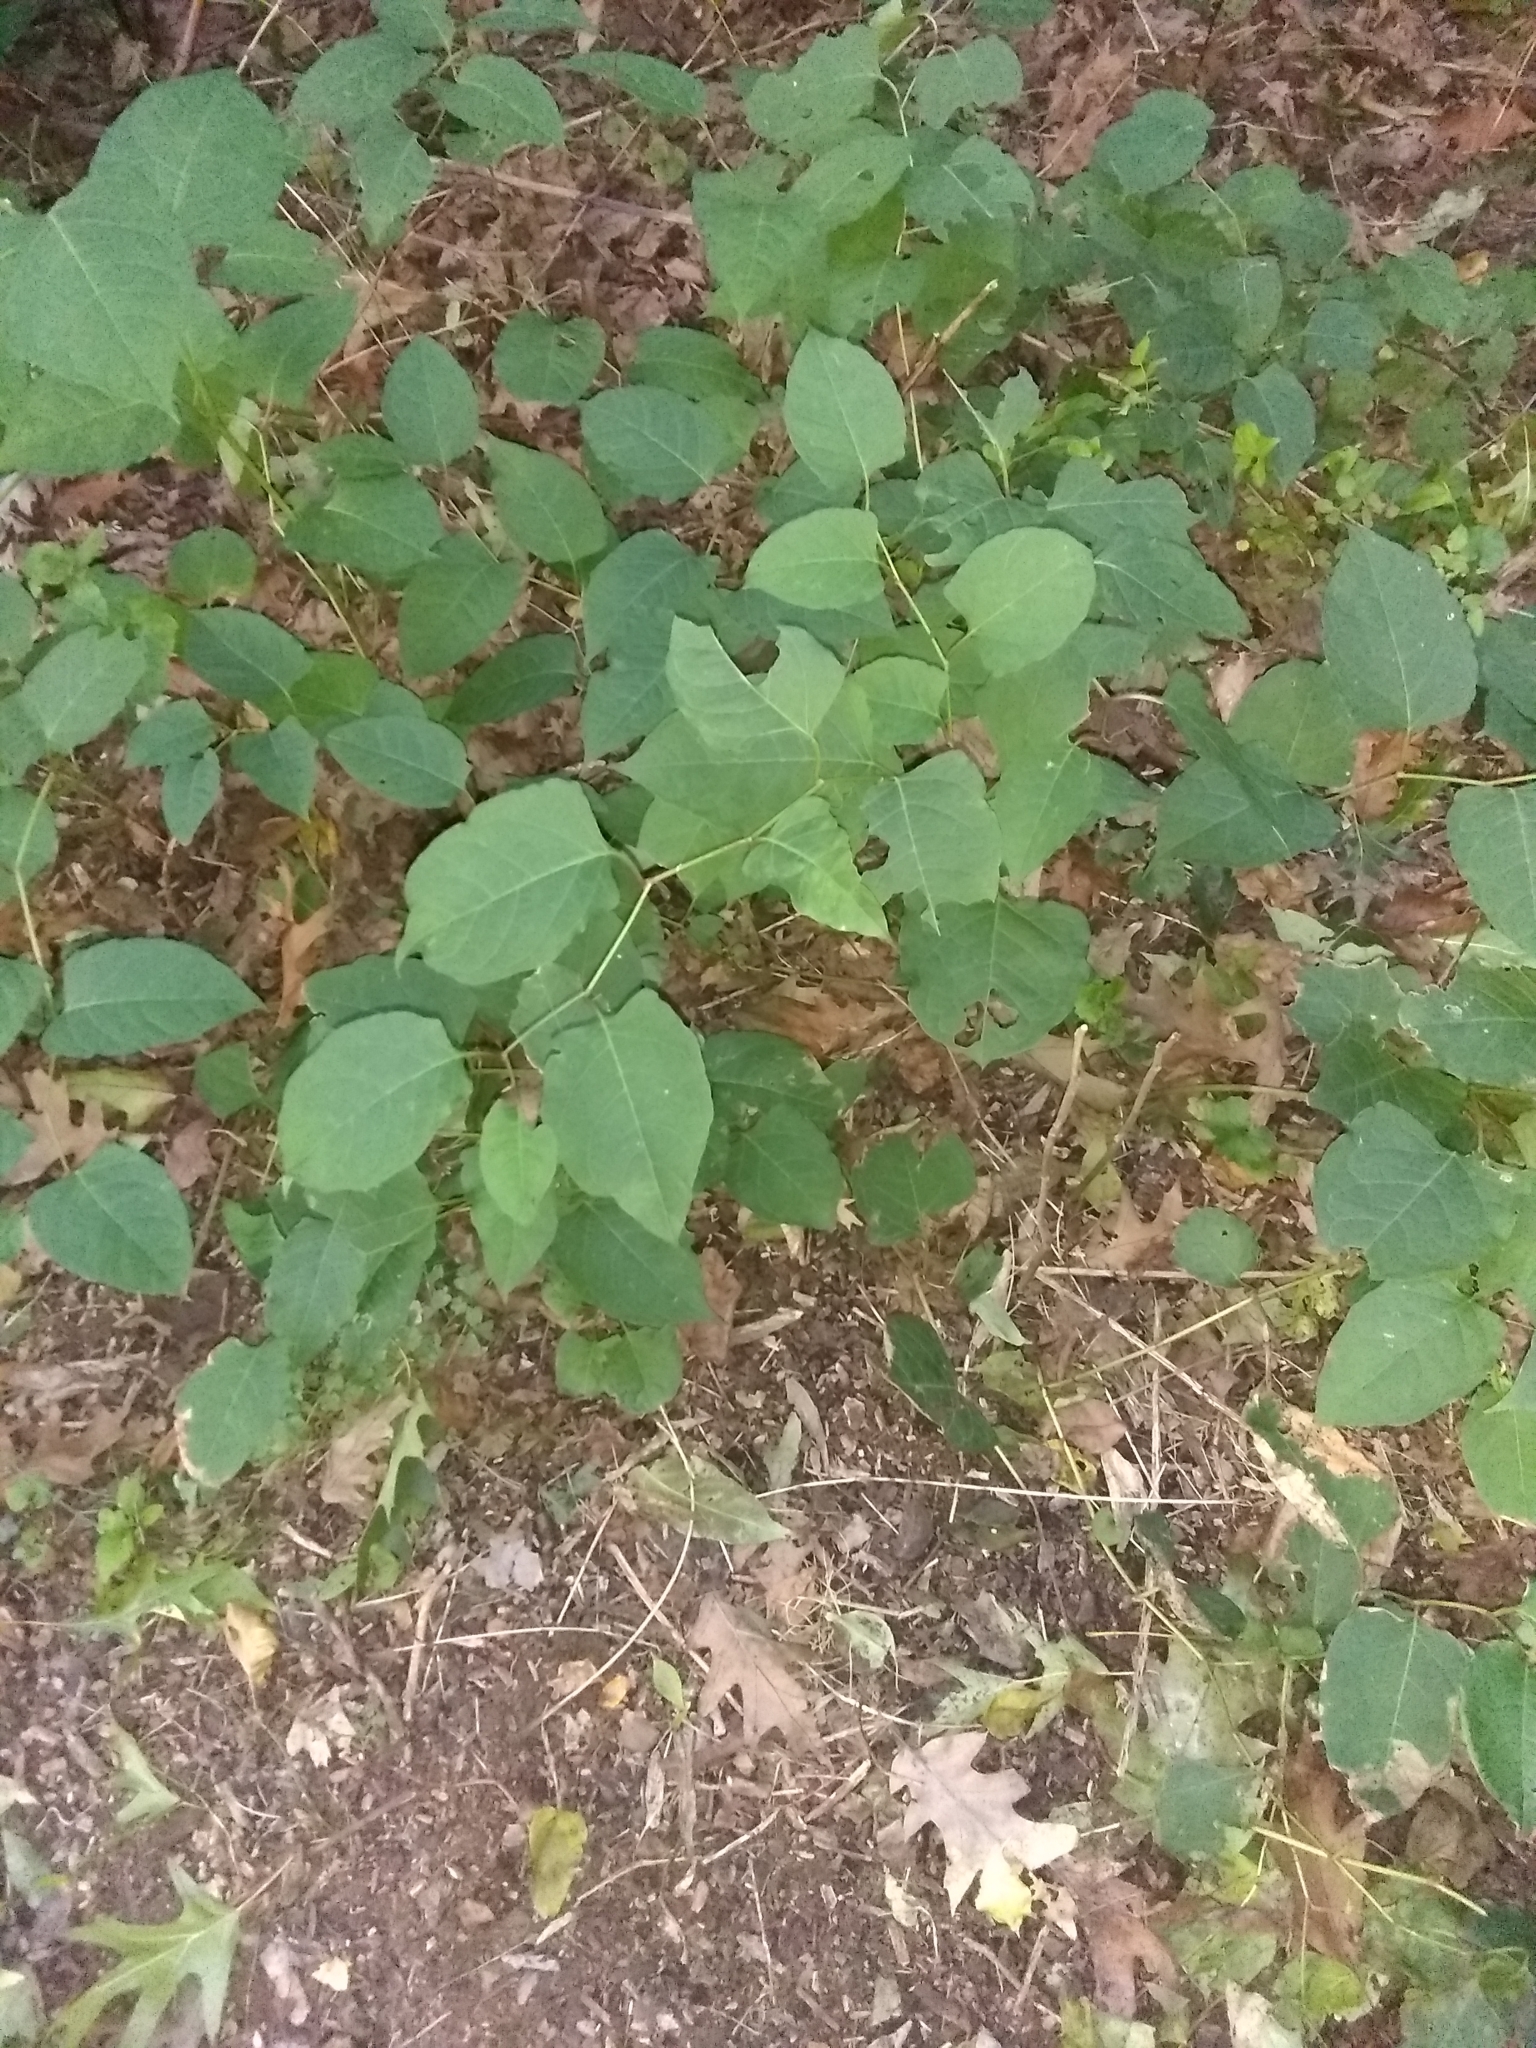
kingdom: Plantae
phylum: Tracheophyta
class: Magnoliopsida
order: Caryophyllales
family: Polygonaceae
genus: Reynoutria
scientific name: Reynoutria japonica
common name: Japanese knotweed
